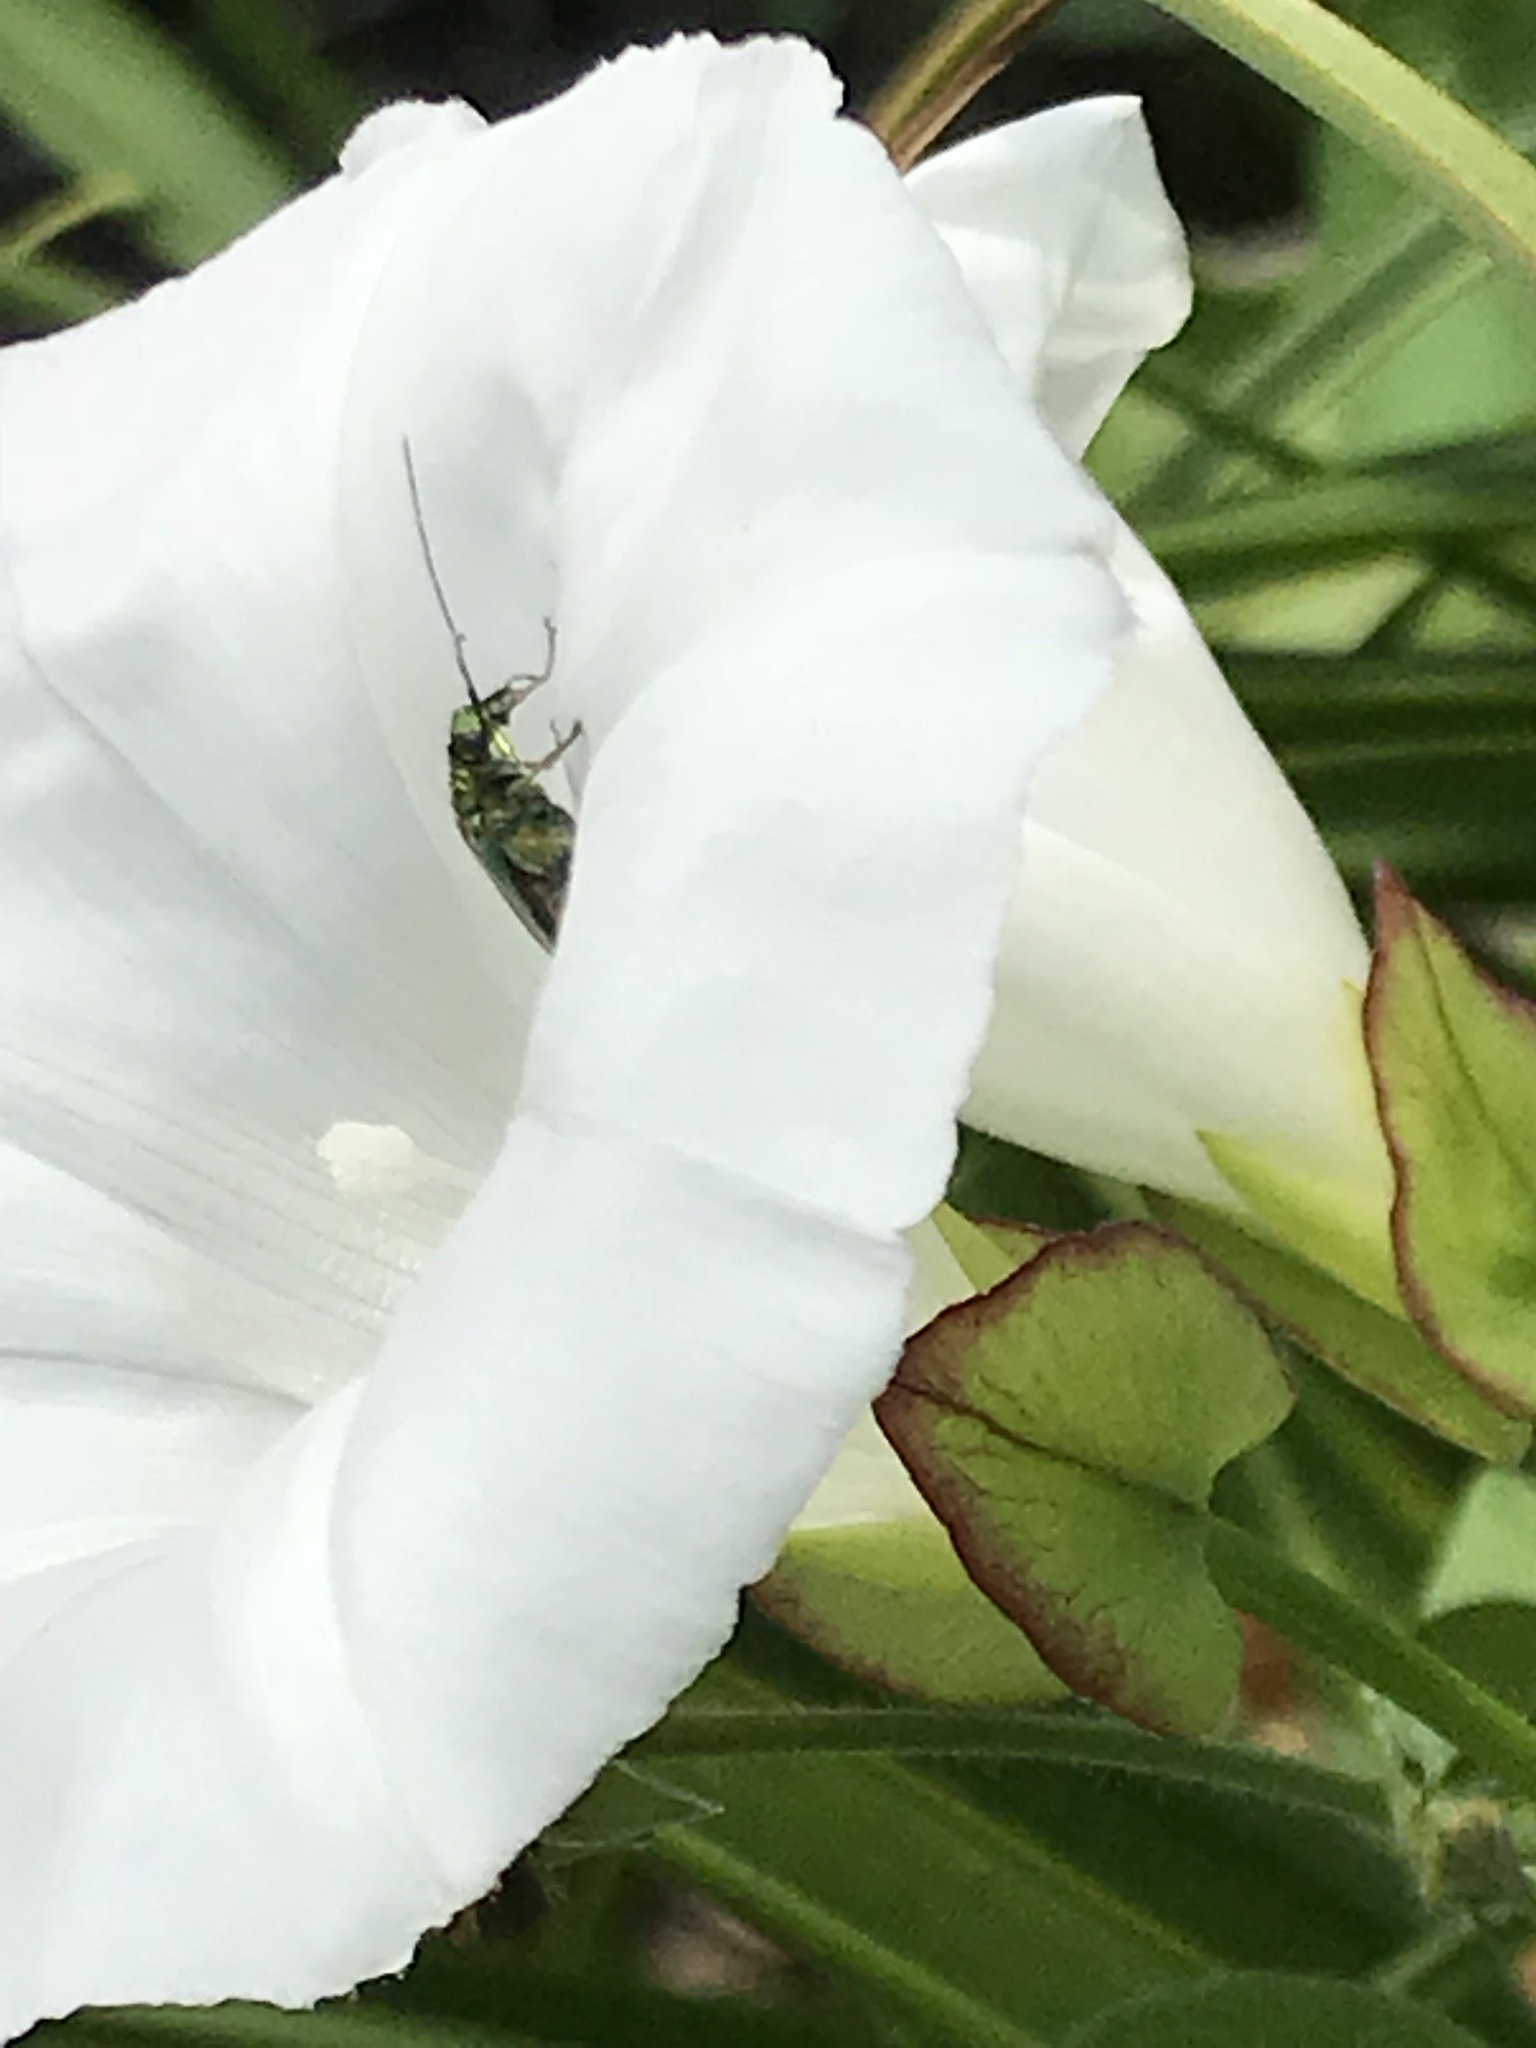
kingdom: Animalia
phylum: Arthropoda
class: Insecta
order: Coleoptera
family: Oedemeridae
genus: Oedemera
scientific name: Oedemera nobilis
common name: Swollen-thighed beetle
